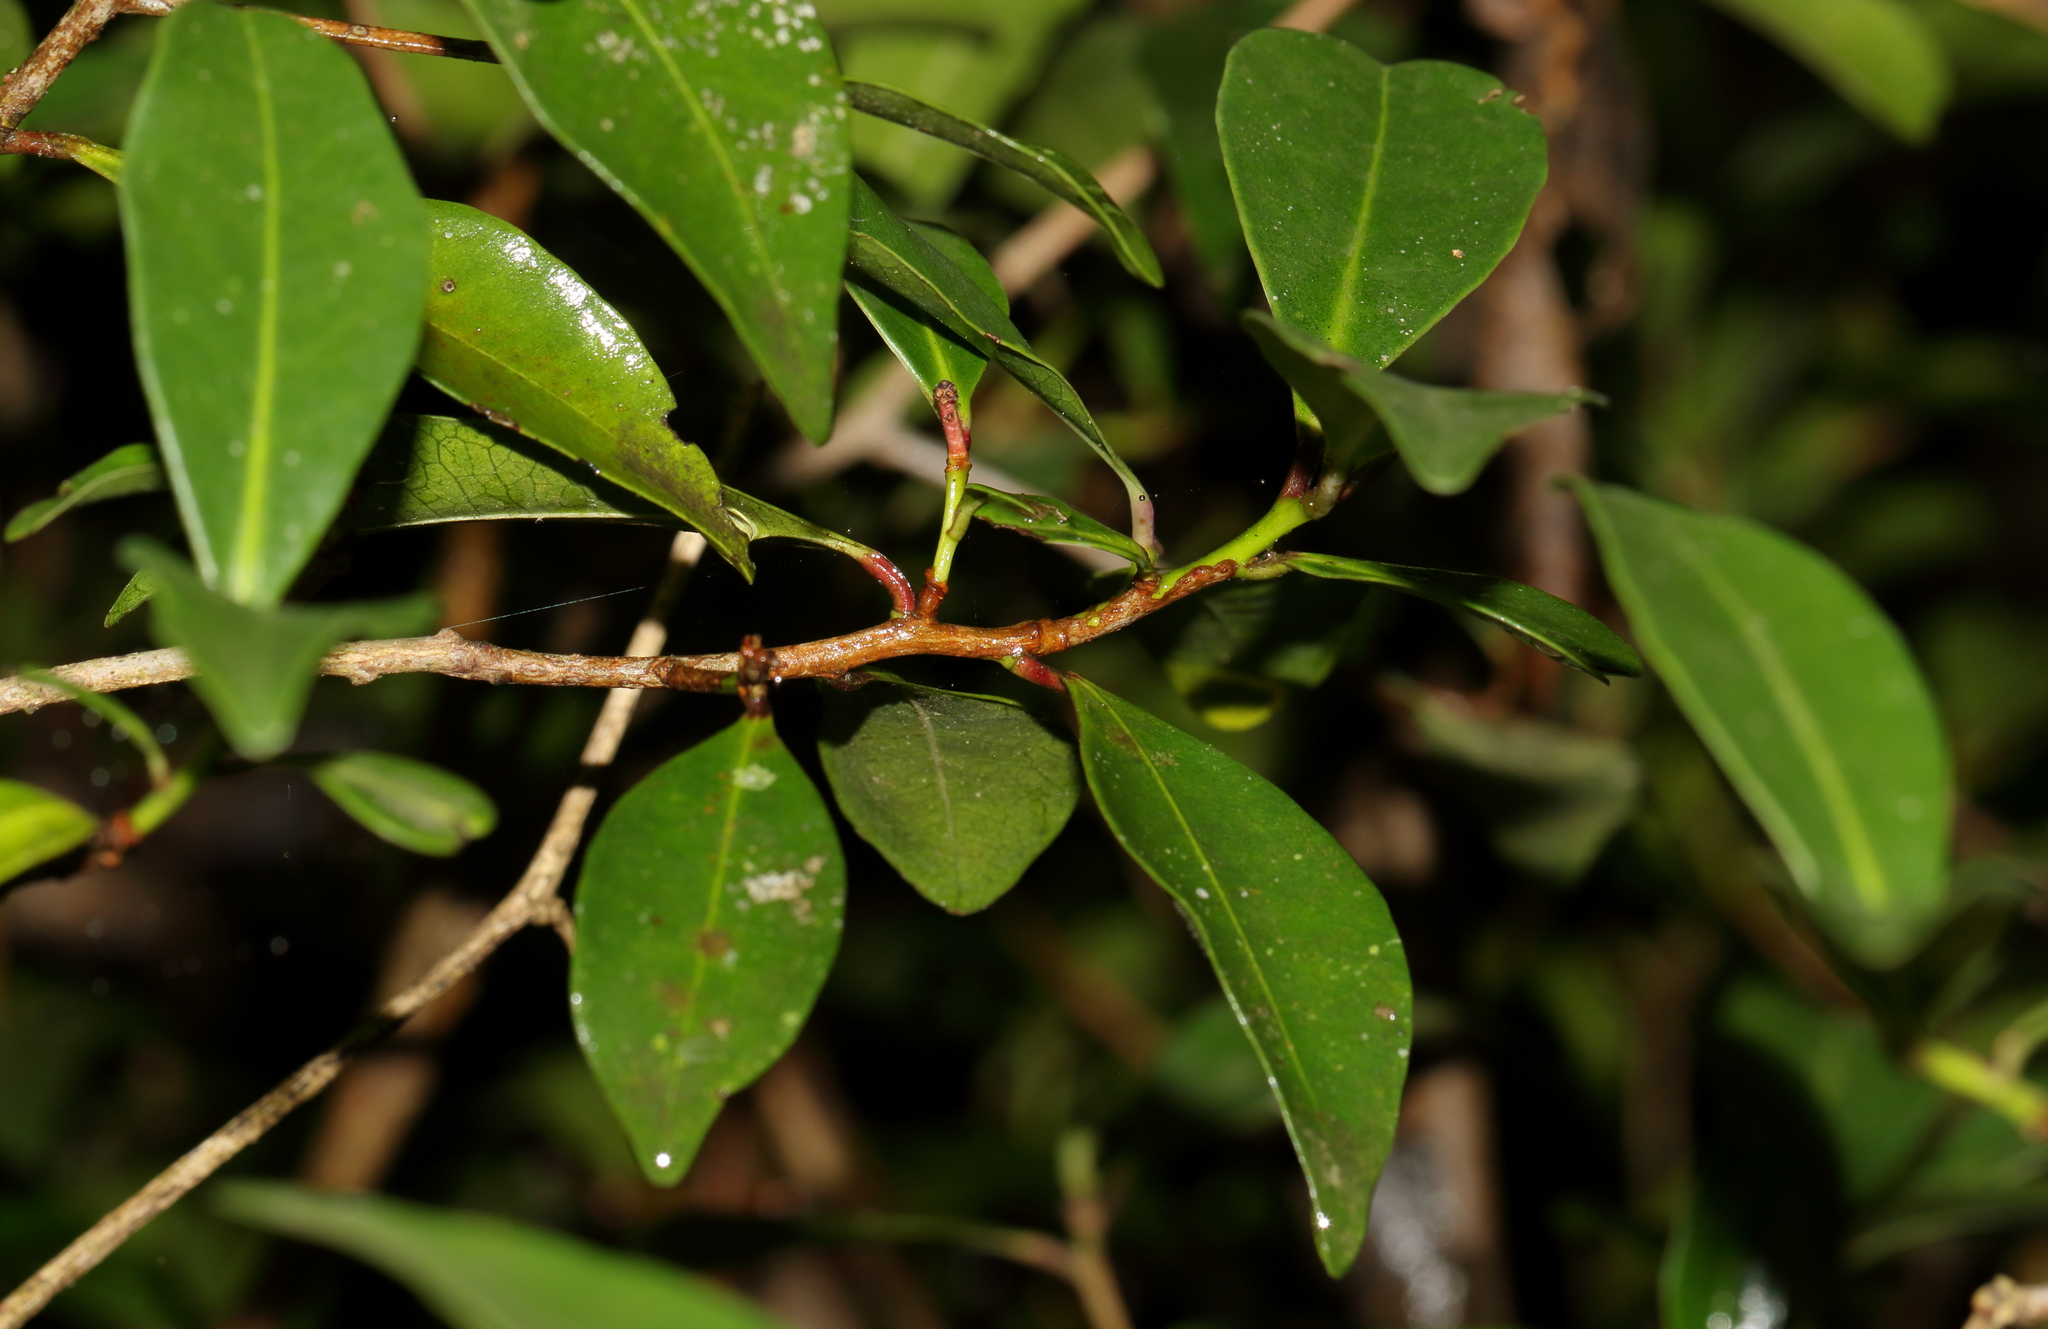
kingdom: Plantae
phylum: Tracheophyta
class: Magnoliopsida
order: Malvales
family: Thymelaeaceae
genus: Peddiea
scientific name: Peddiea africana
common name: Poison olive
